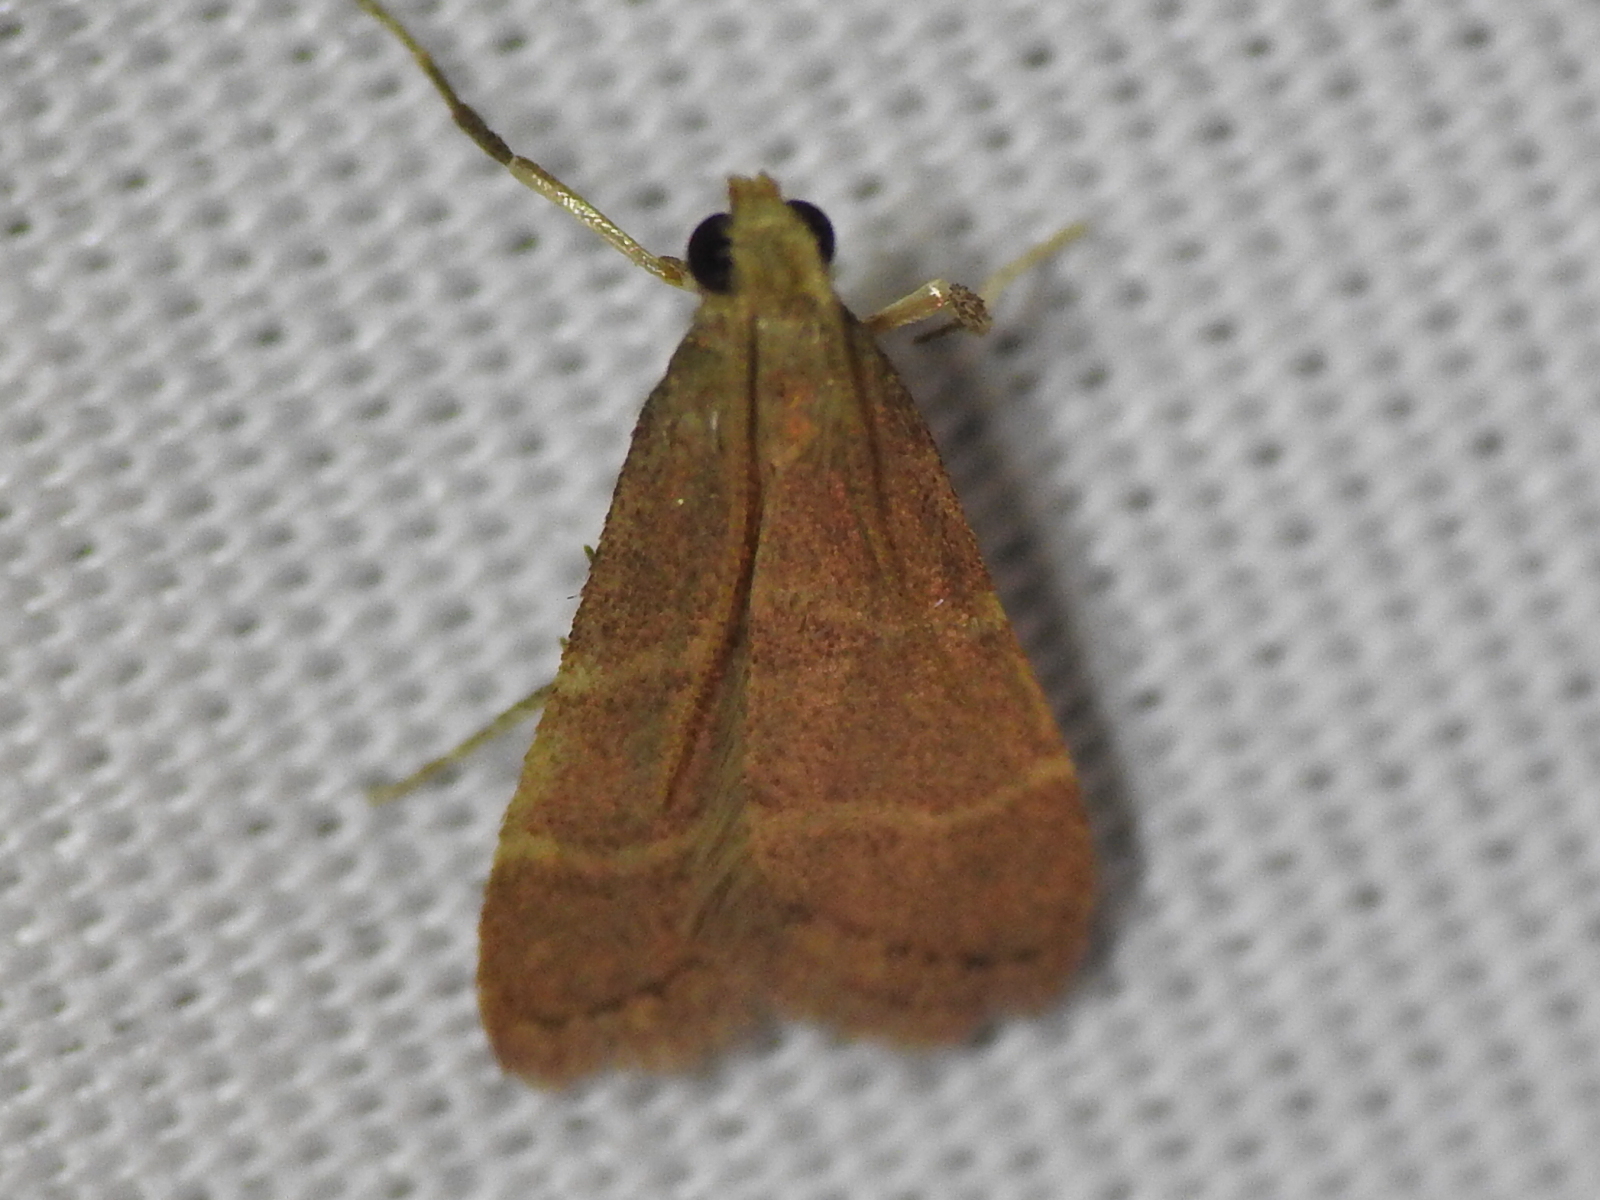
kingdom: Animalia
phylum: Arthropoda
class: Insecta
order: Lepidoptera
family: Pyralidae
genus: Arta
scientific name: Arta epicoenalis
